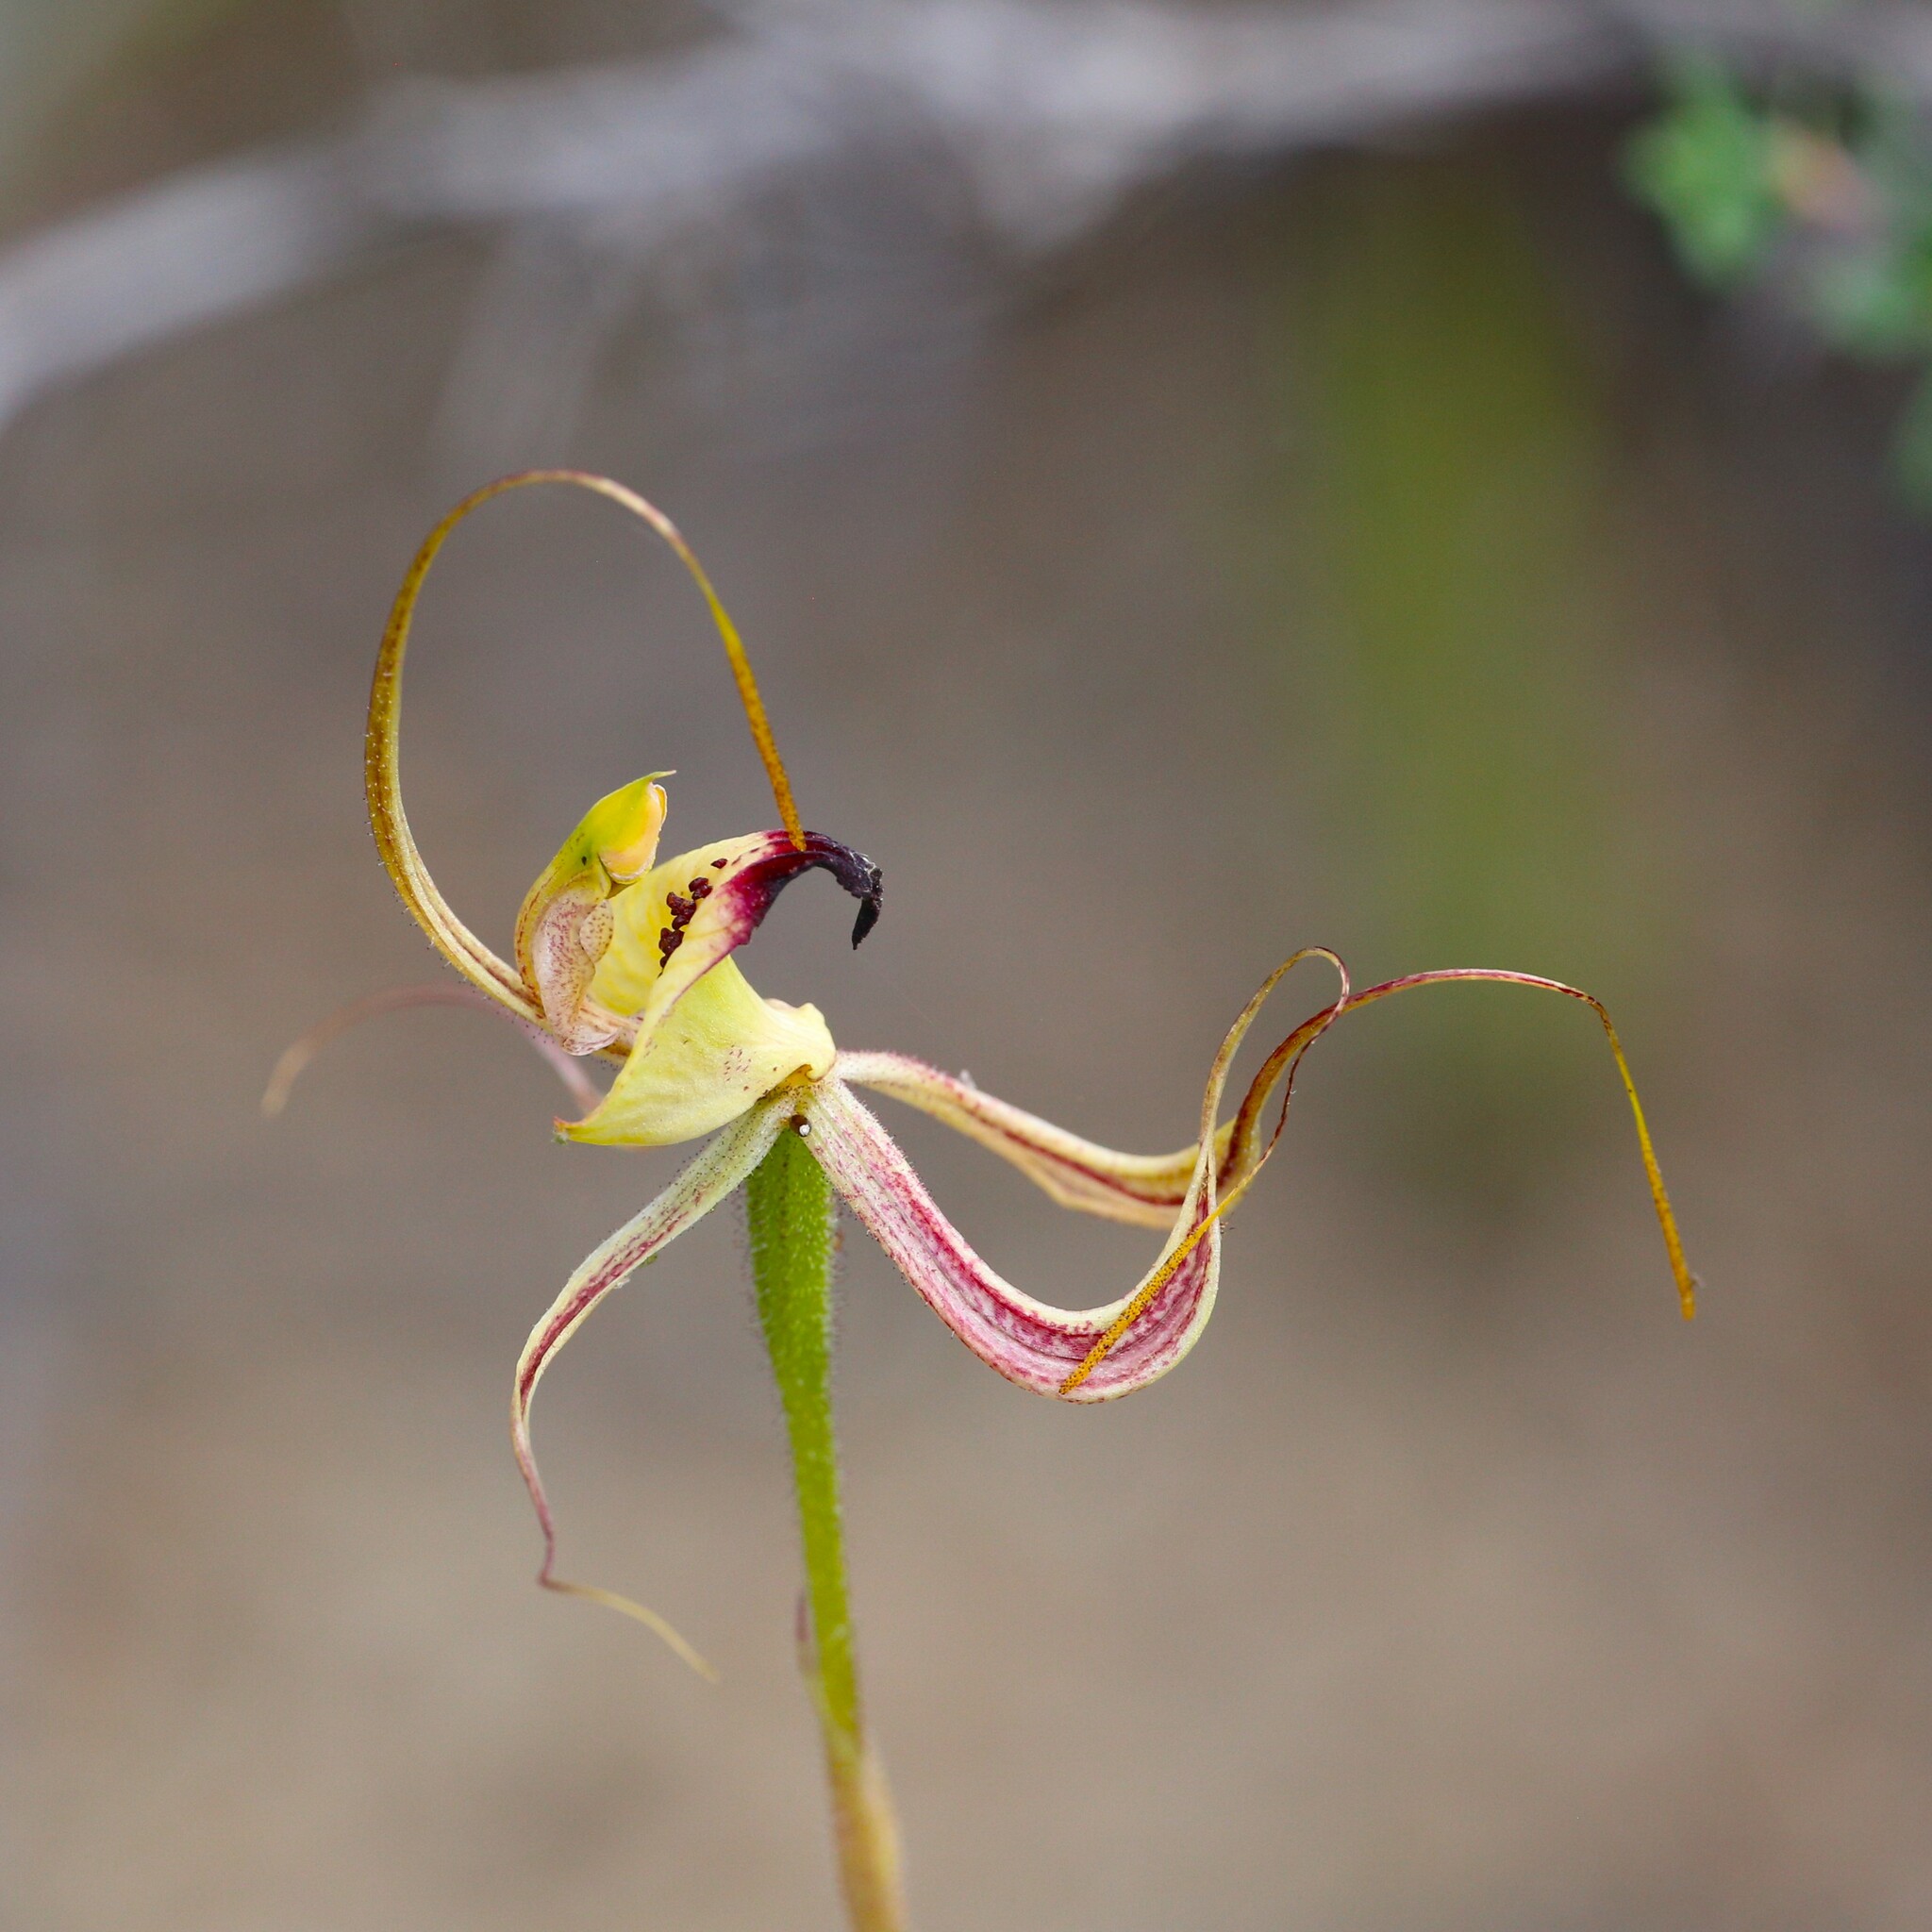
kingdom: Plantae
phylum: Tracheophyta
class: Liliopsida
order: Asparagales
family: Orchidaceae
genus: Caladenia
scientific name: Caladenia integra
